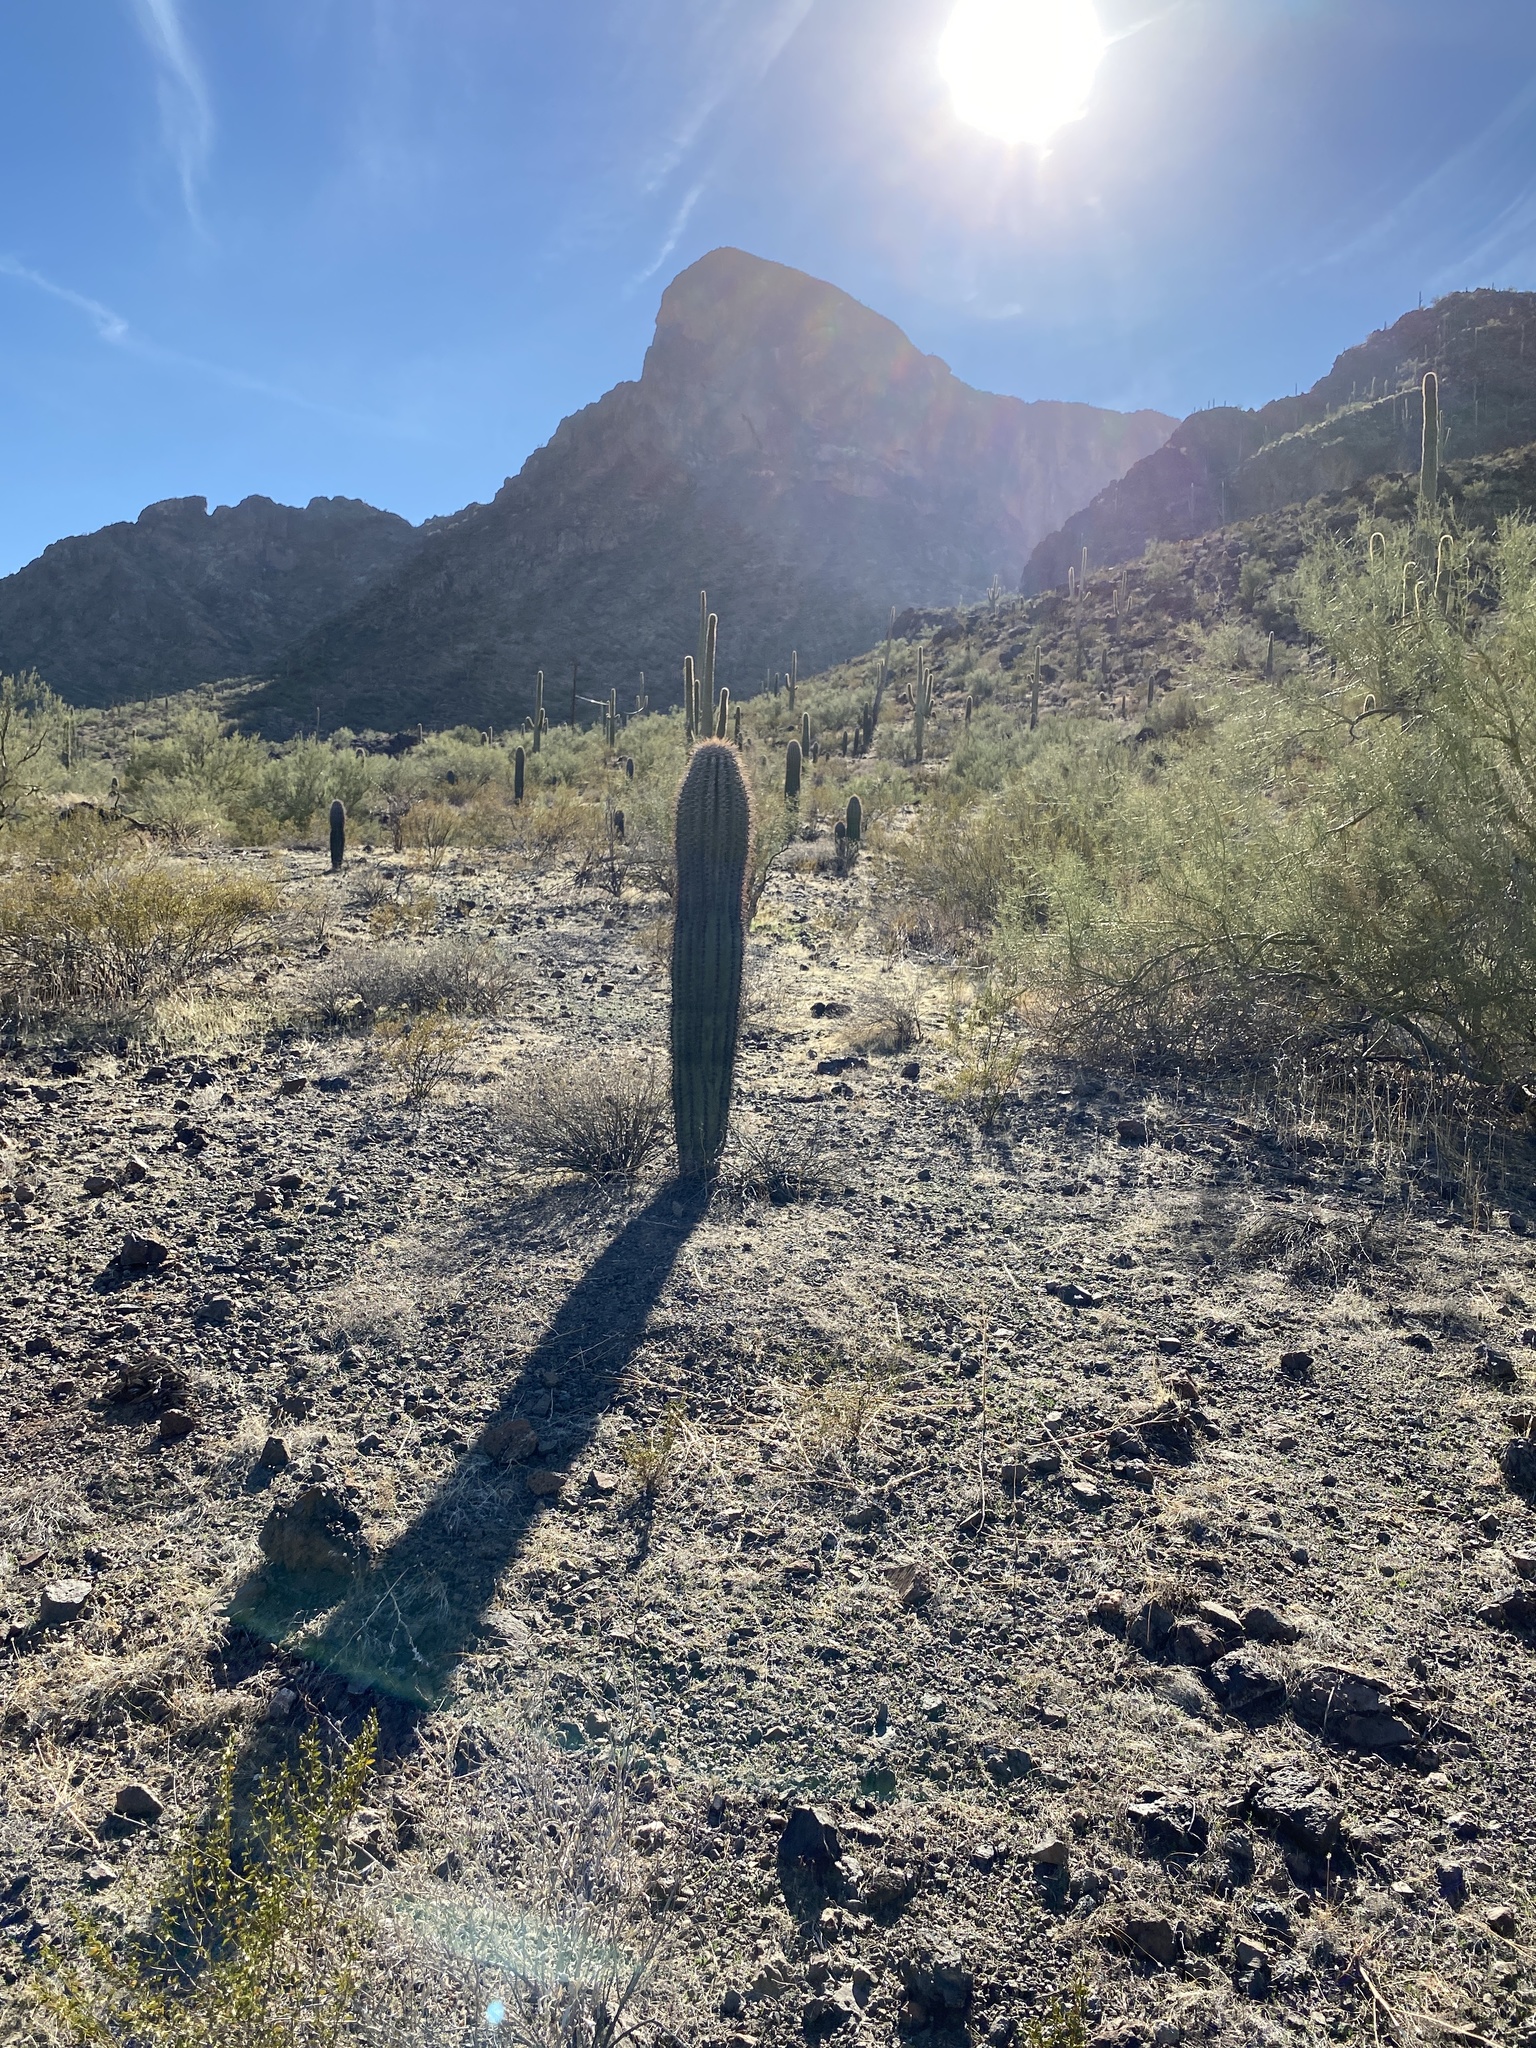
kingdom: Plantae
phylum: Tracheophyta
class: Magnoliopsida
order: Caryophyllales
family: Cactaceae
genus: Carnegiea
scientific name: Carnegiea gigantea
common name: Saguaro
